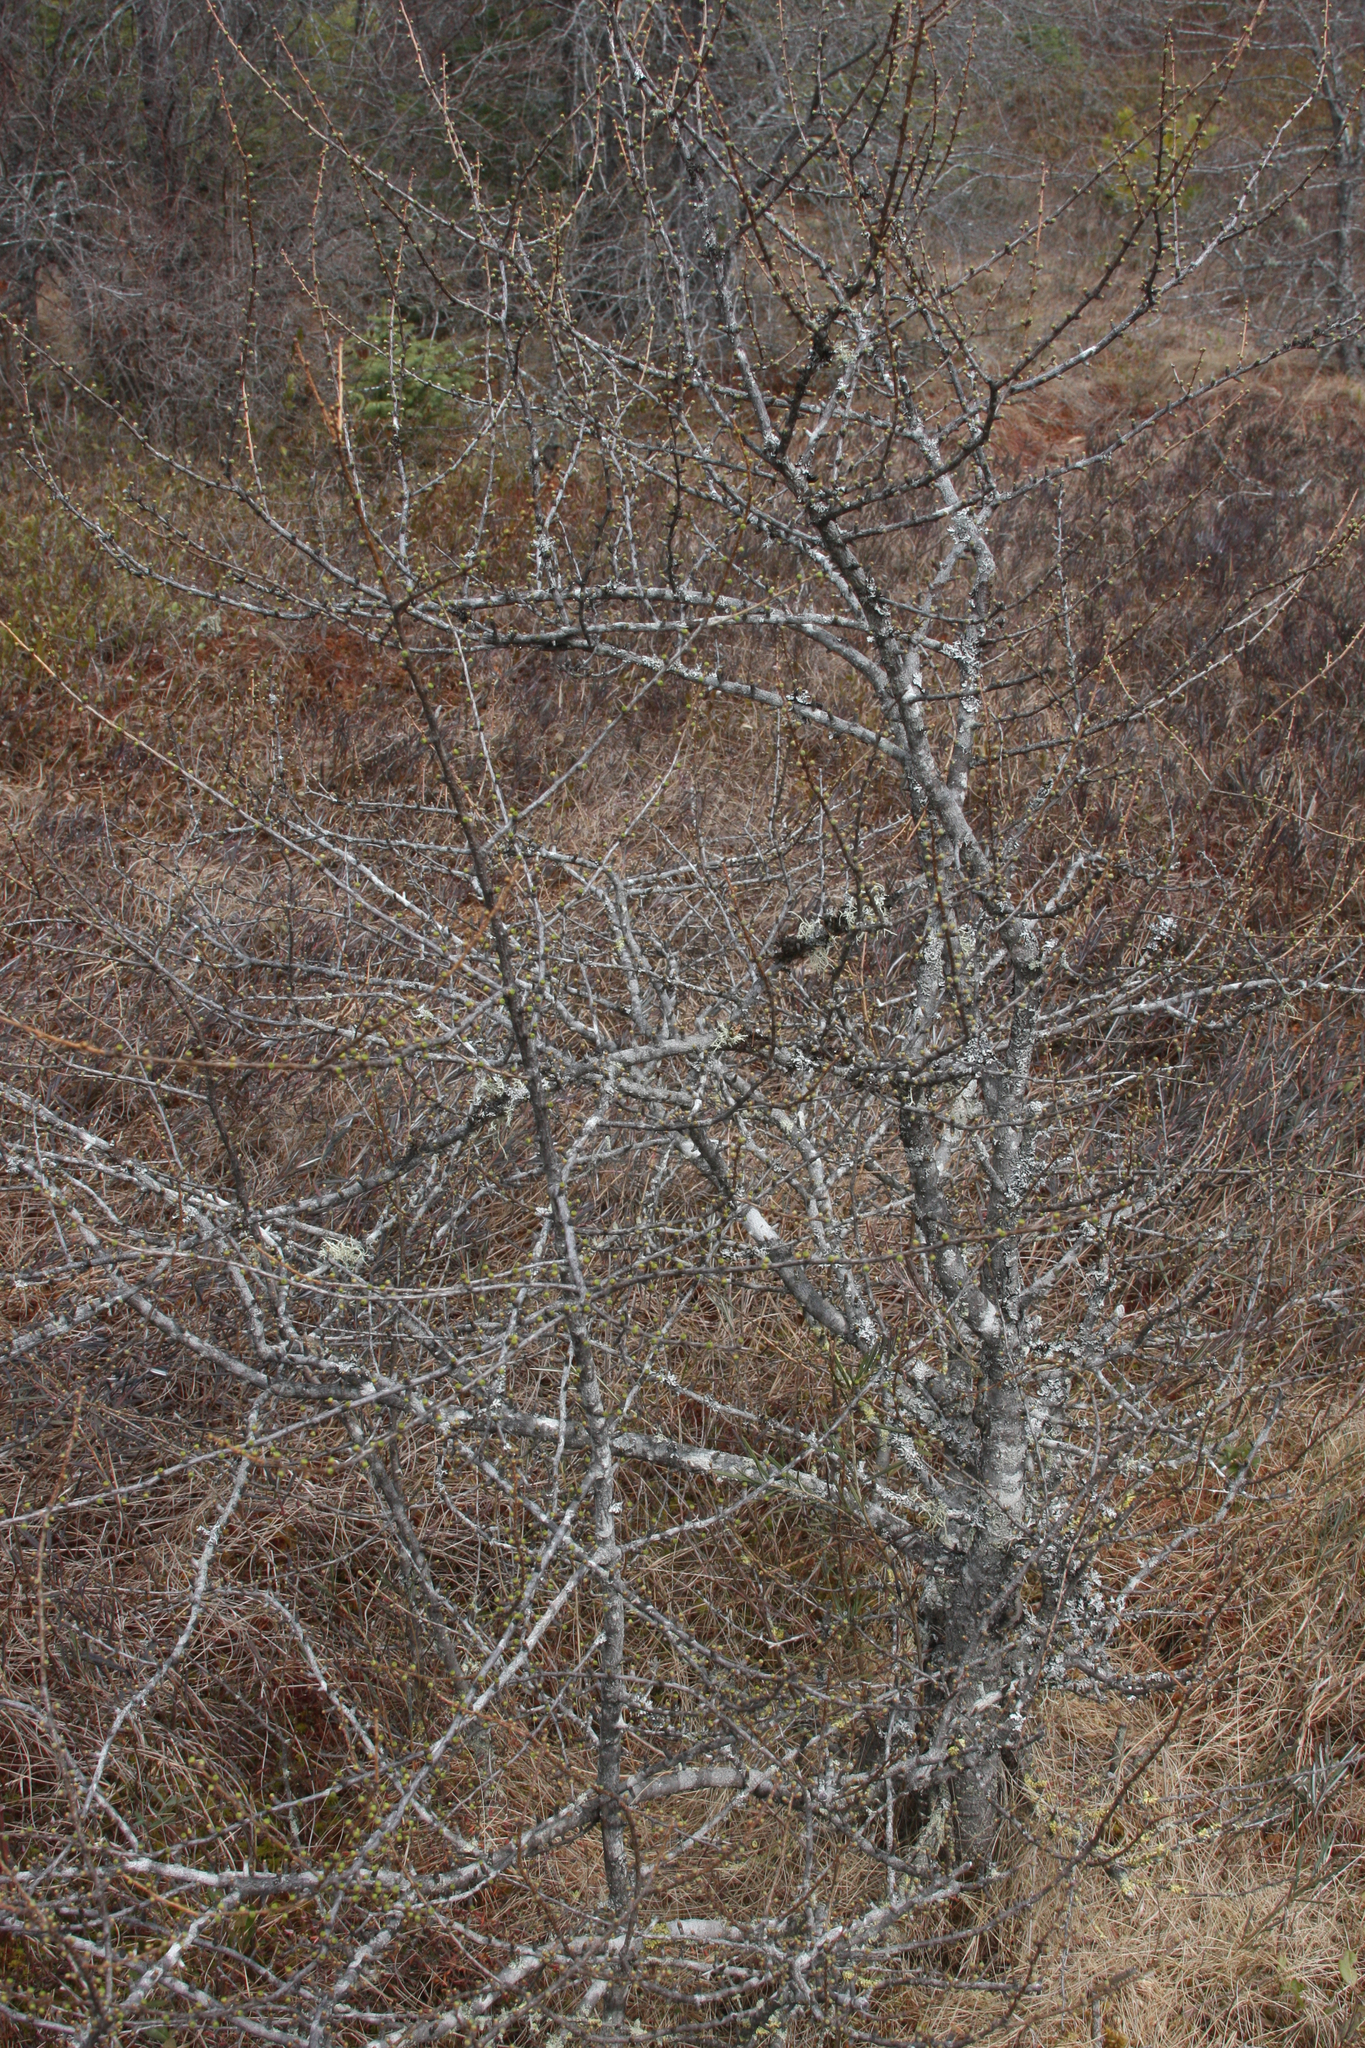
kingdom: Plantae
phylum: Tracheophyta
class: Pinopsida
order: Pinales
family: Pinaceae
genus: Larix
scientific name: Larix laricina
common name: American larch
